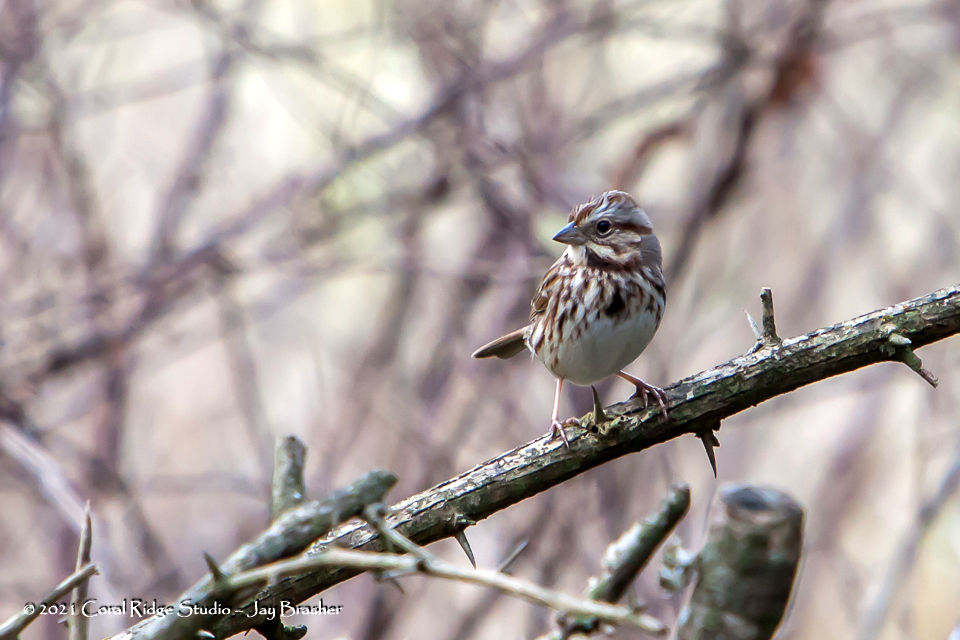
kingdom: Animalia
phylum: Chordata
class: Aves
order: Passeriformes
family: Passerellidae
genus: Melospiza
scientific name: Melospiza melodia
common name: Song sparrow
